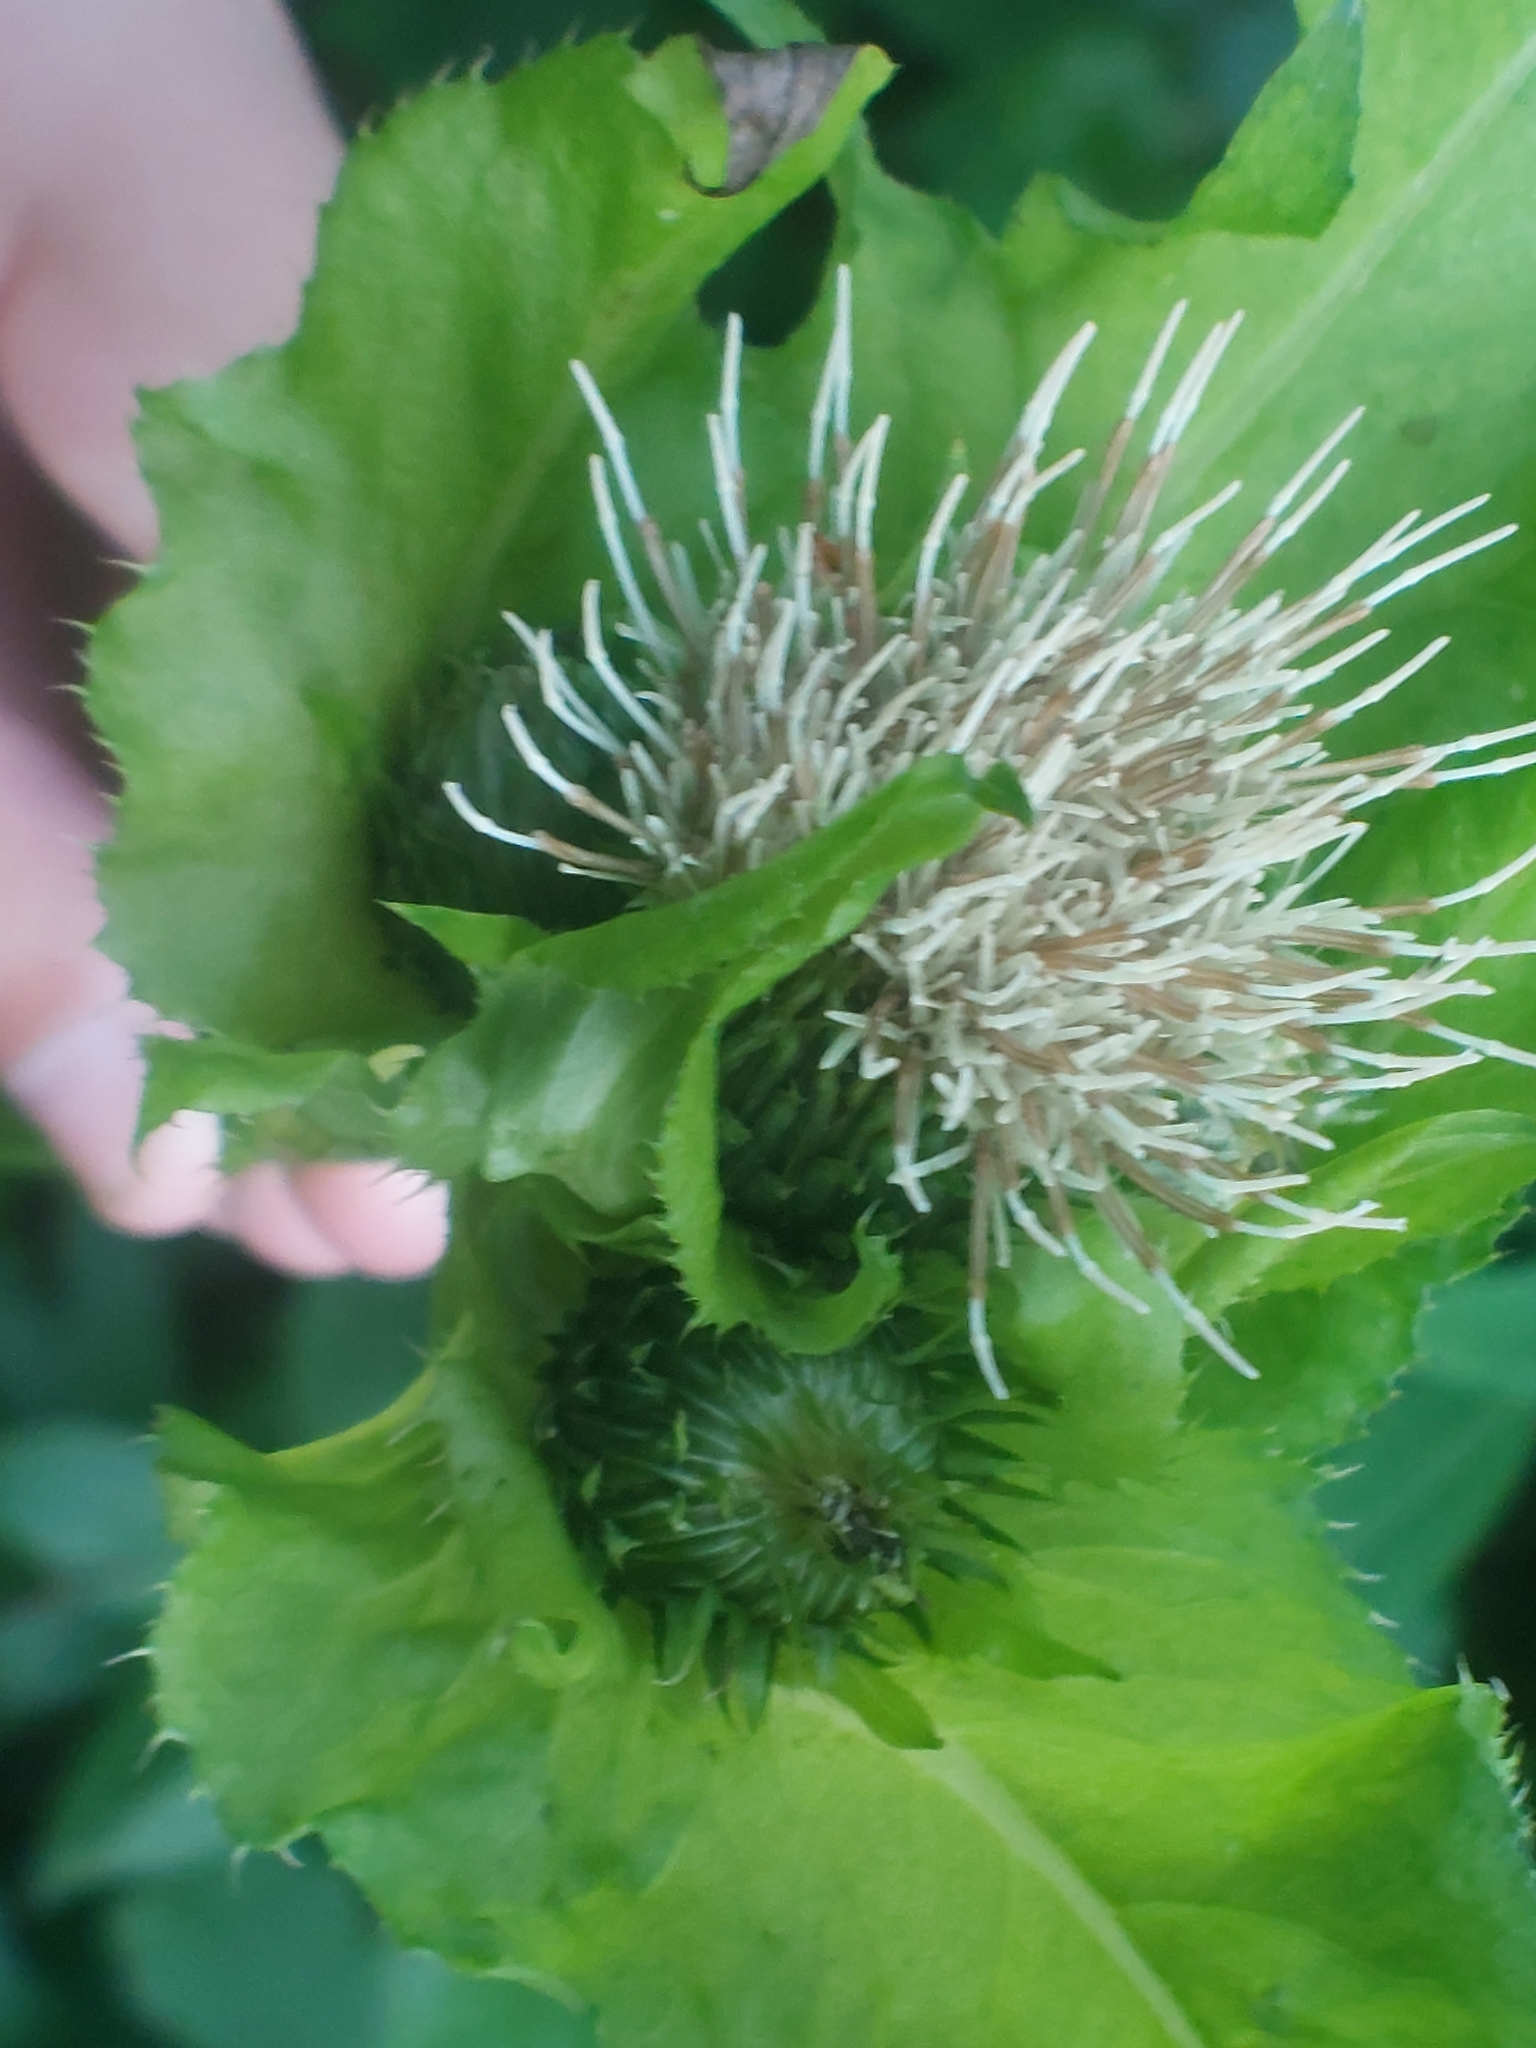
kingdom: Plantae
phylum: Tracheophyta
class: Magnoliopsida
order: Asterales
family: Asteraceae
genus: Cirsium
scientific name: Cirsium oleraceum
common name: Cabbage thistle
